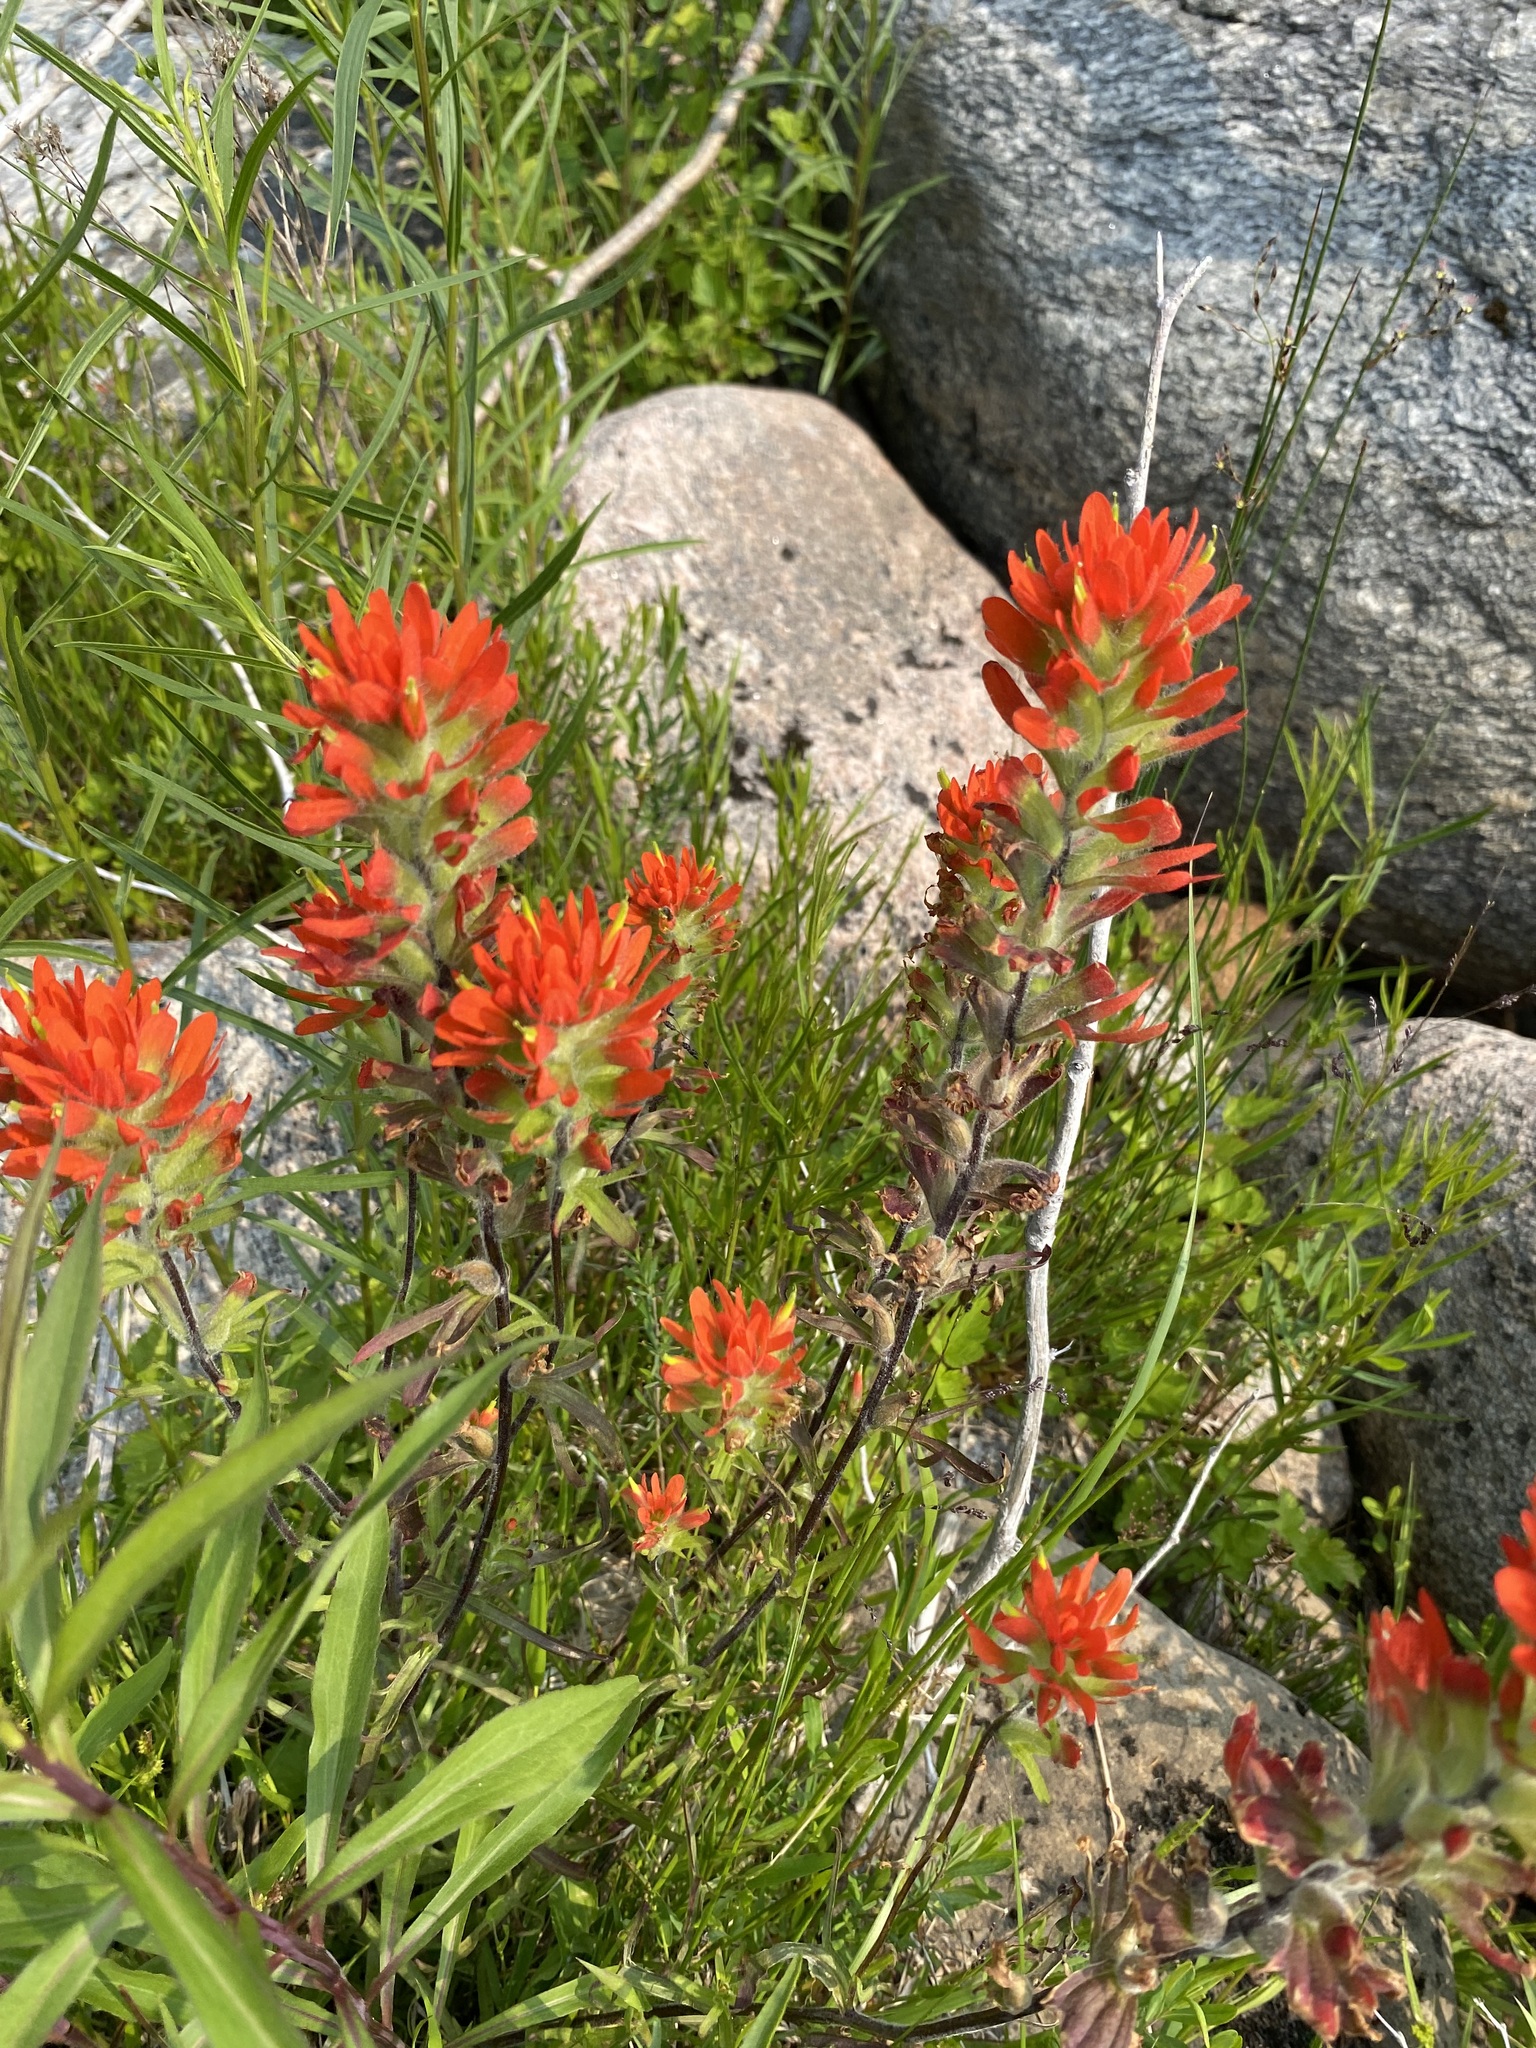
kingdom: Plantae
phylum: Tracheophyta
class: Magnoliopsida
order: Lamiales
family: Orobanchaceae
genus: Castilleja
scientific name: Castilleja coccinea
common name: Scarlet paintbrush
